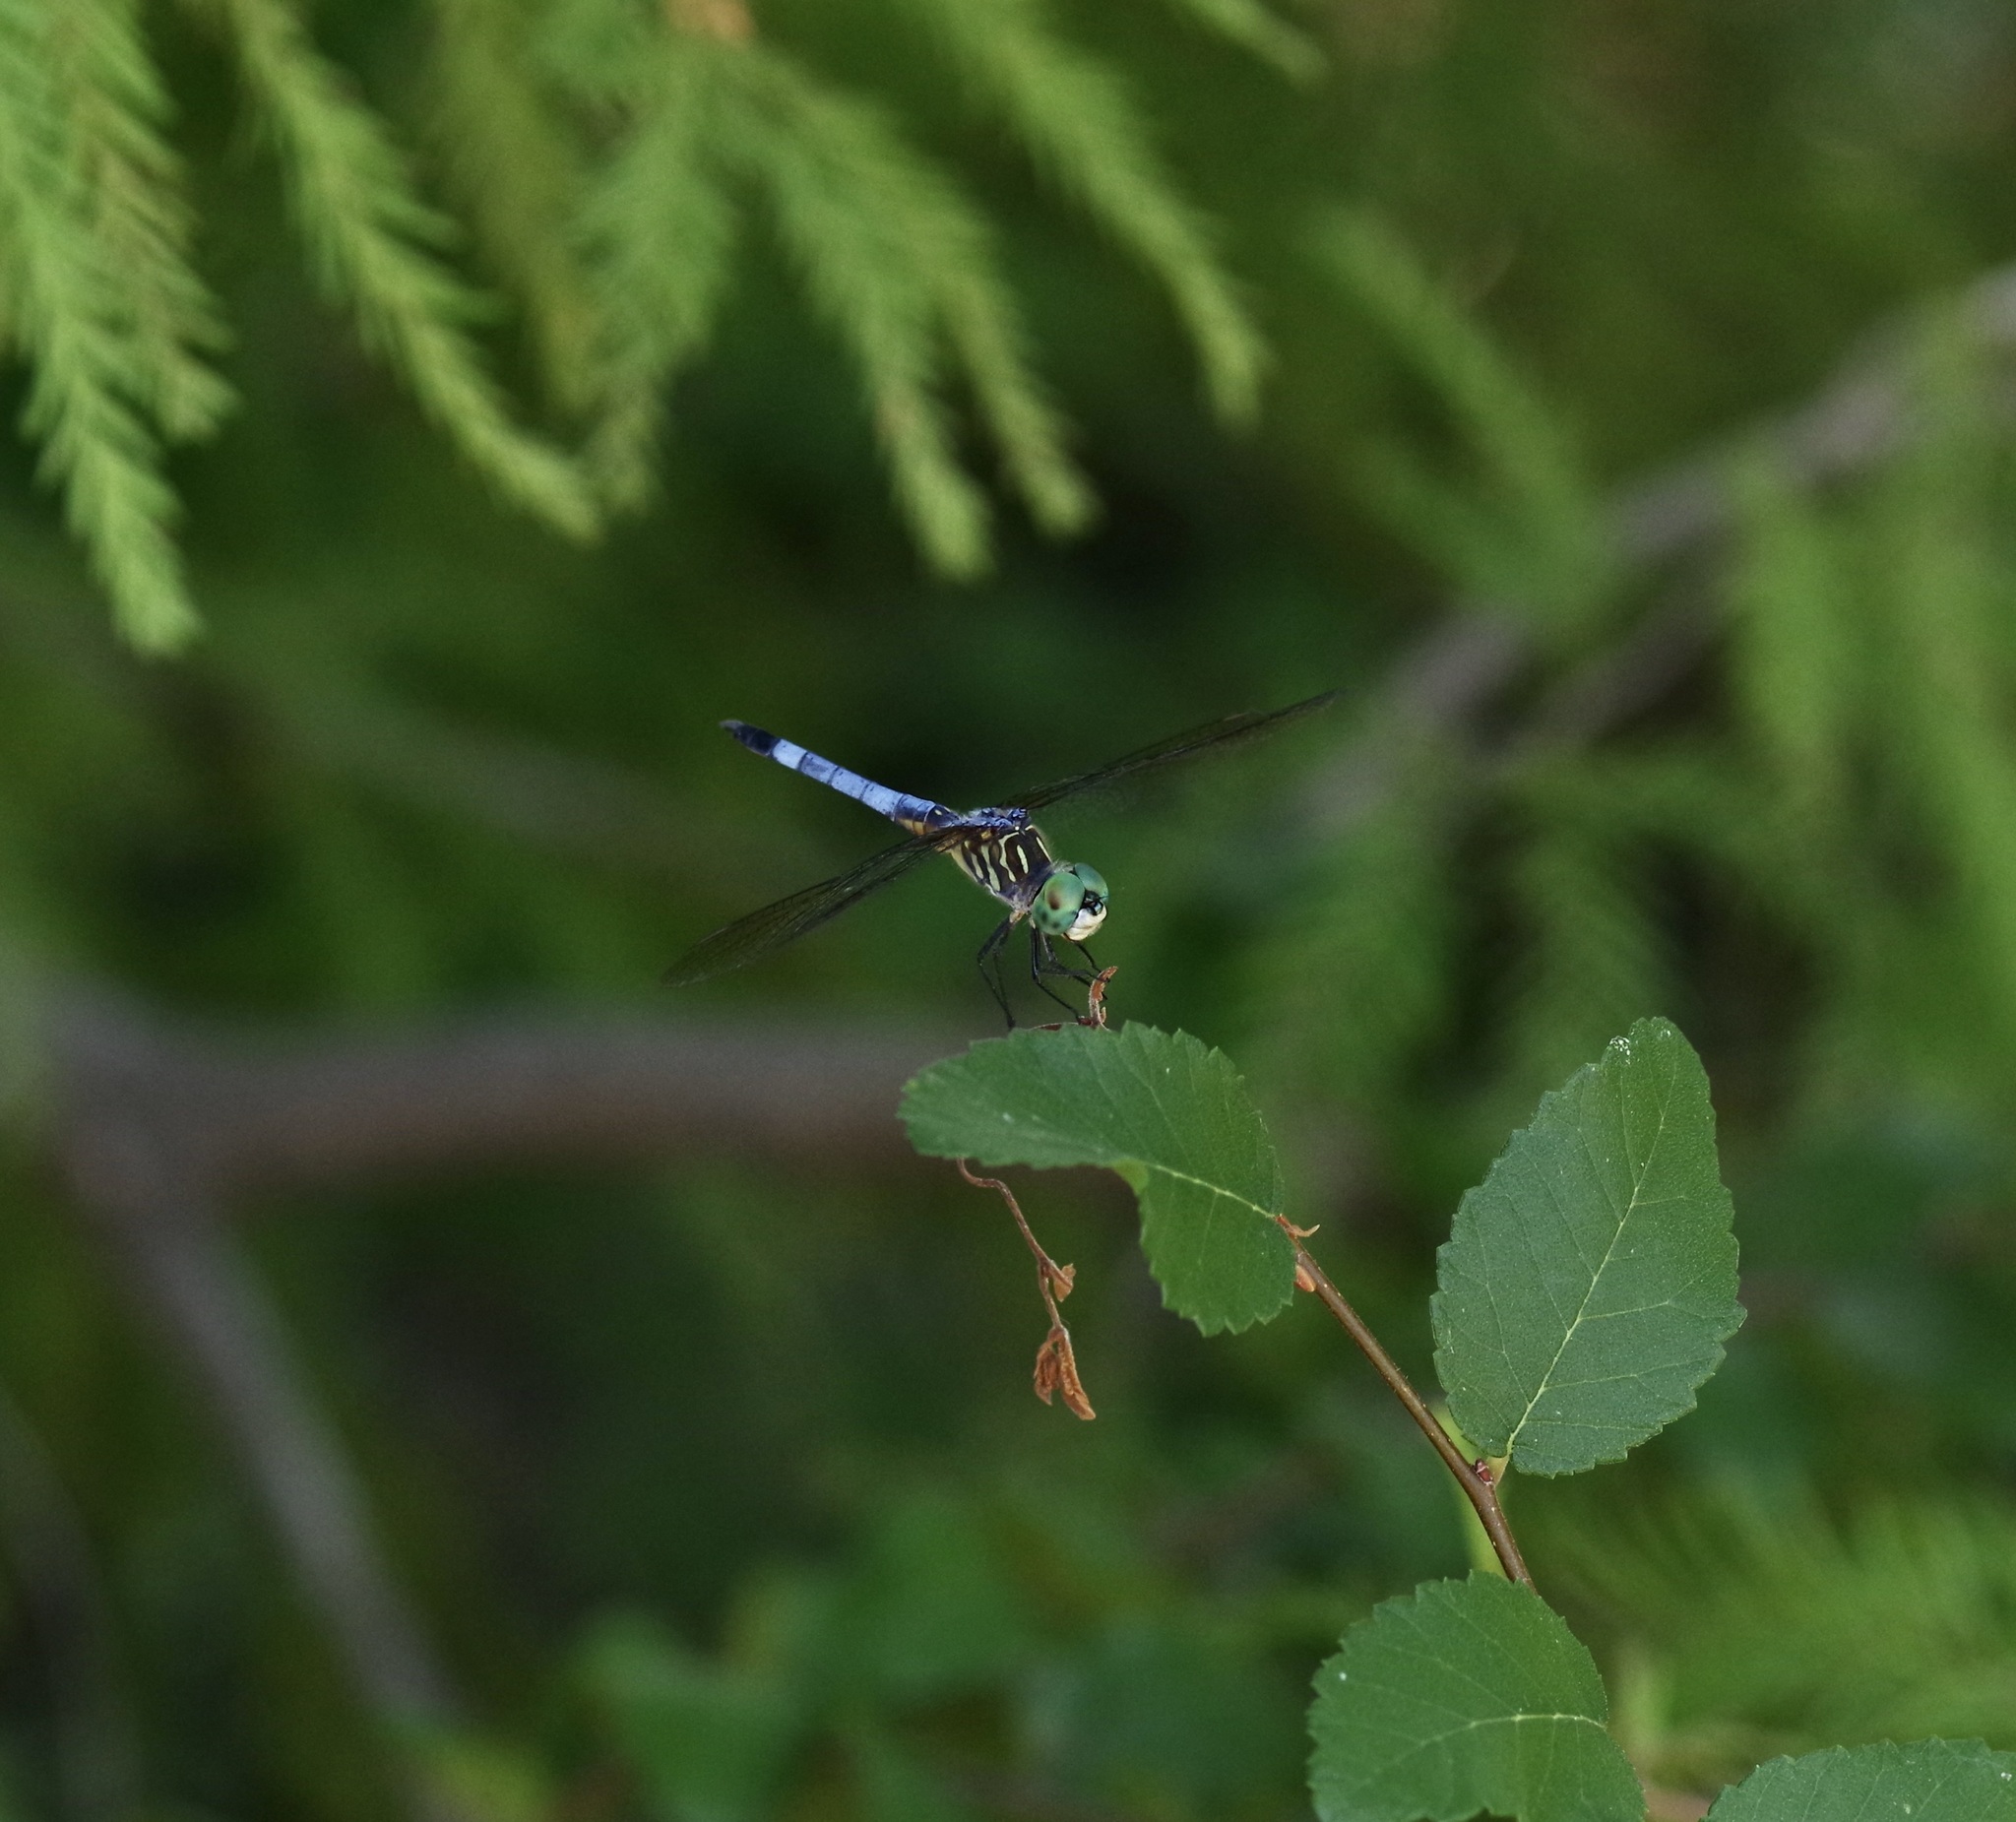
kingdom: Animalia
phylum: Arthropoda
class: Insecta
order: Odonata
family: Libellulidae
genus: Pachydiplax
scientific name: Pachydiplax longipennis
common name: Blue dasher
